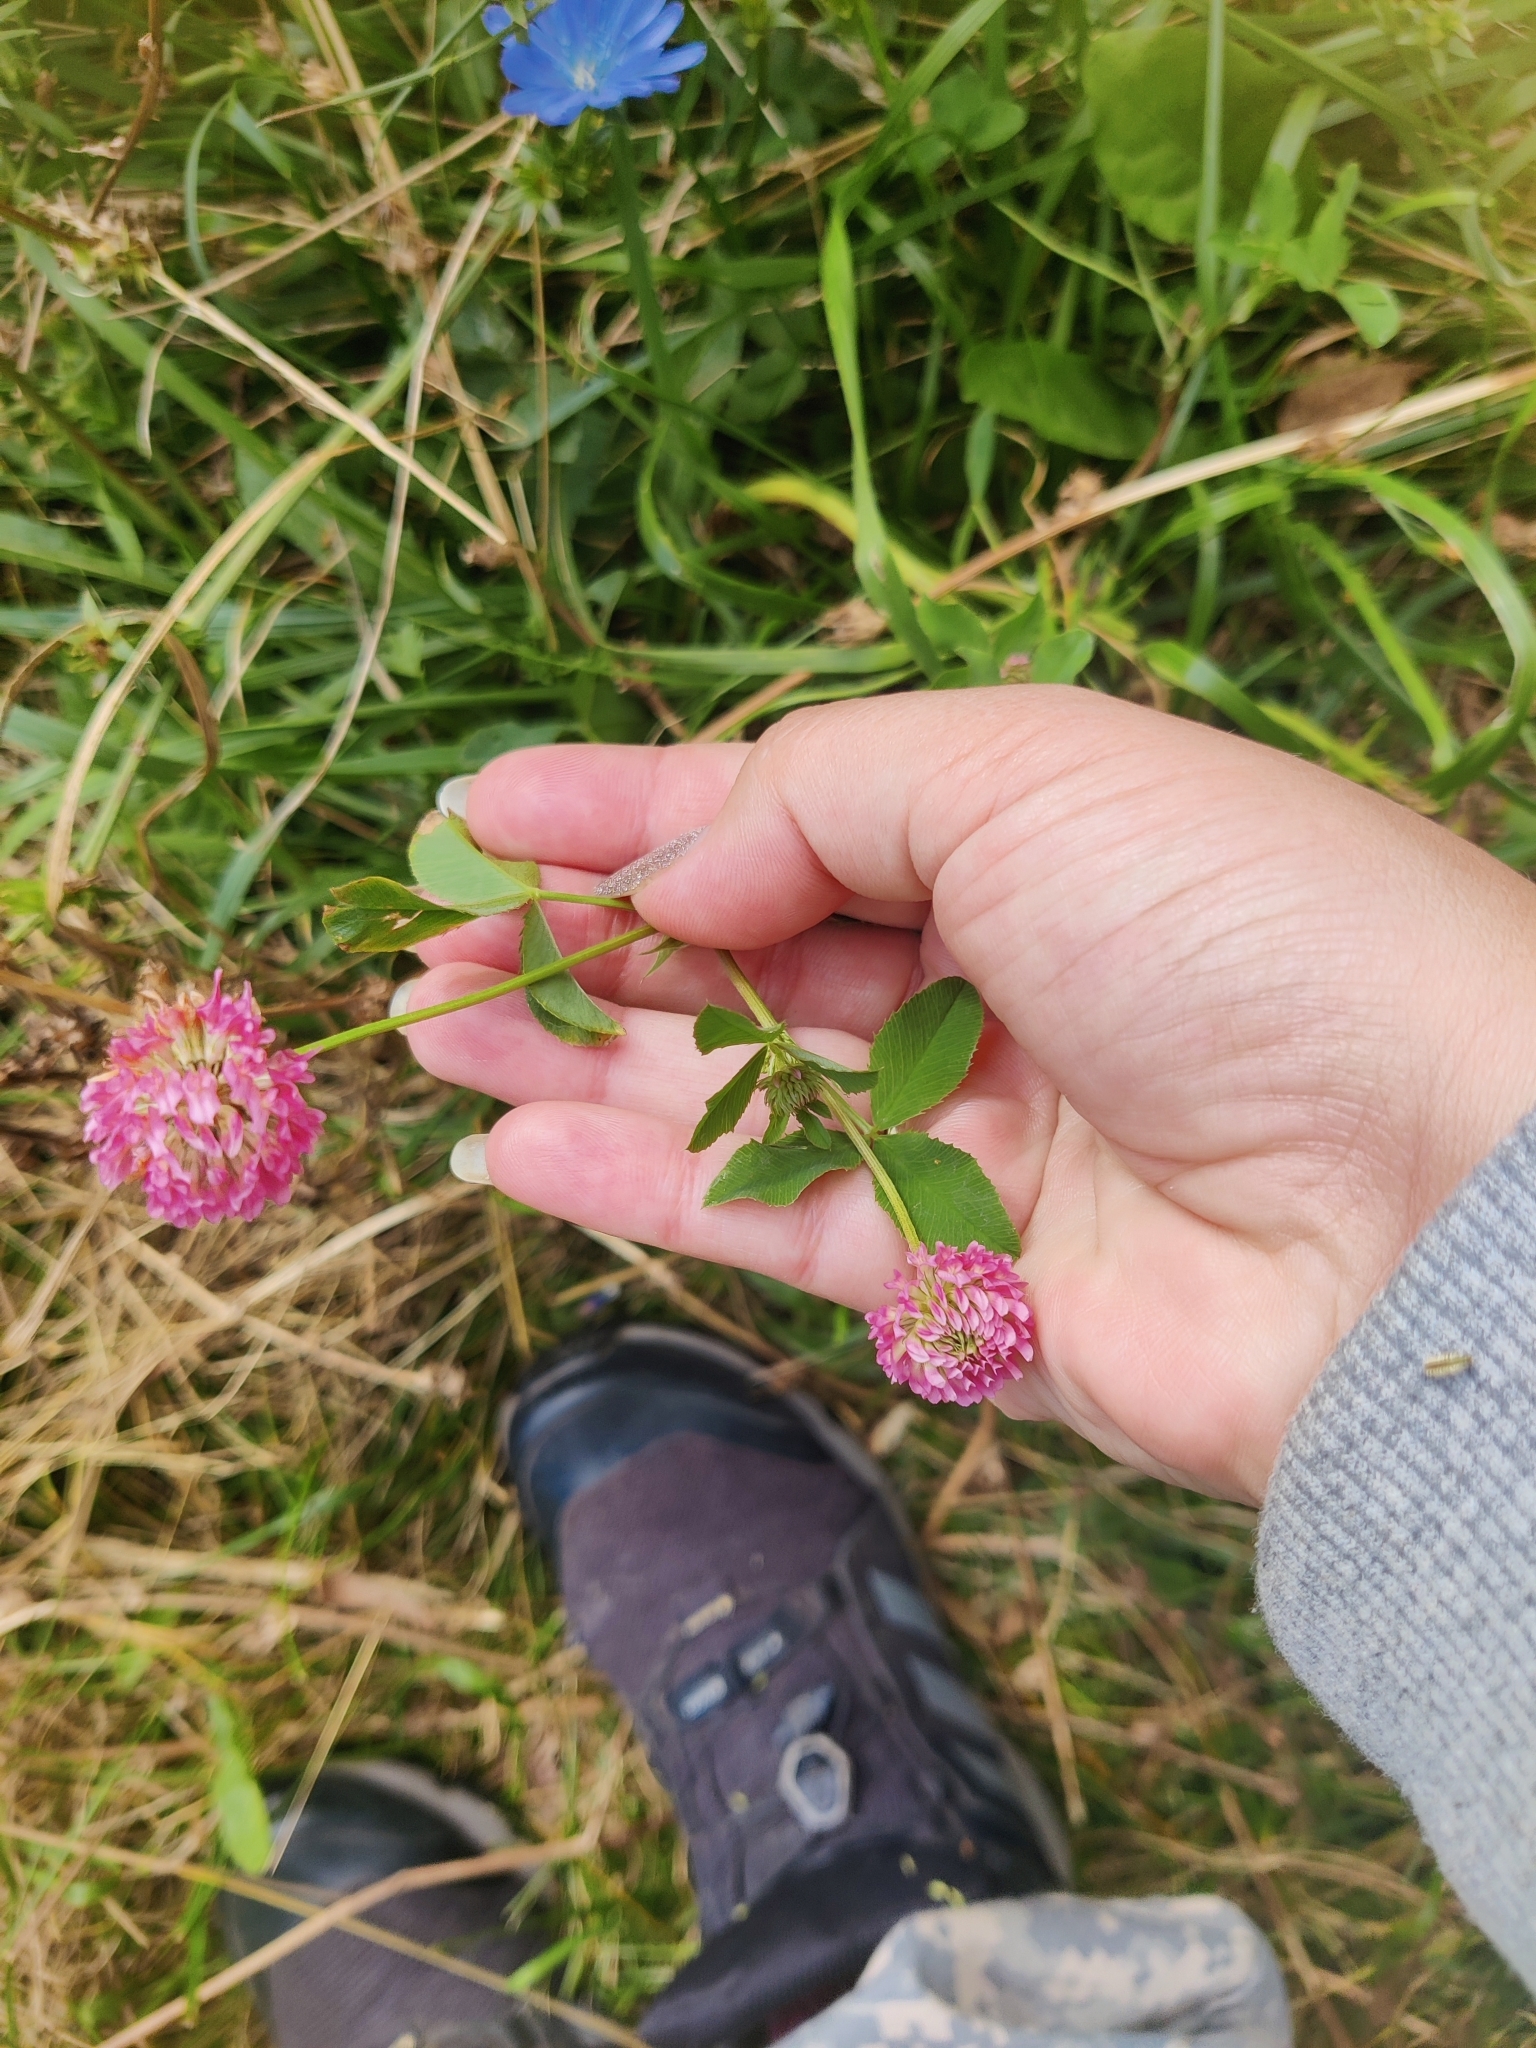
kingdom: Plantae
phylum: Tracheophyta
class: Magnoliopsida
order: Fabales
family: Fabaceae
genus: Trifolium
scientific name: Trifolium hybridum
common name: Alsike clover
